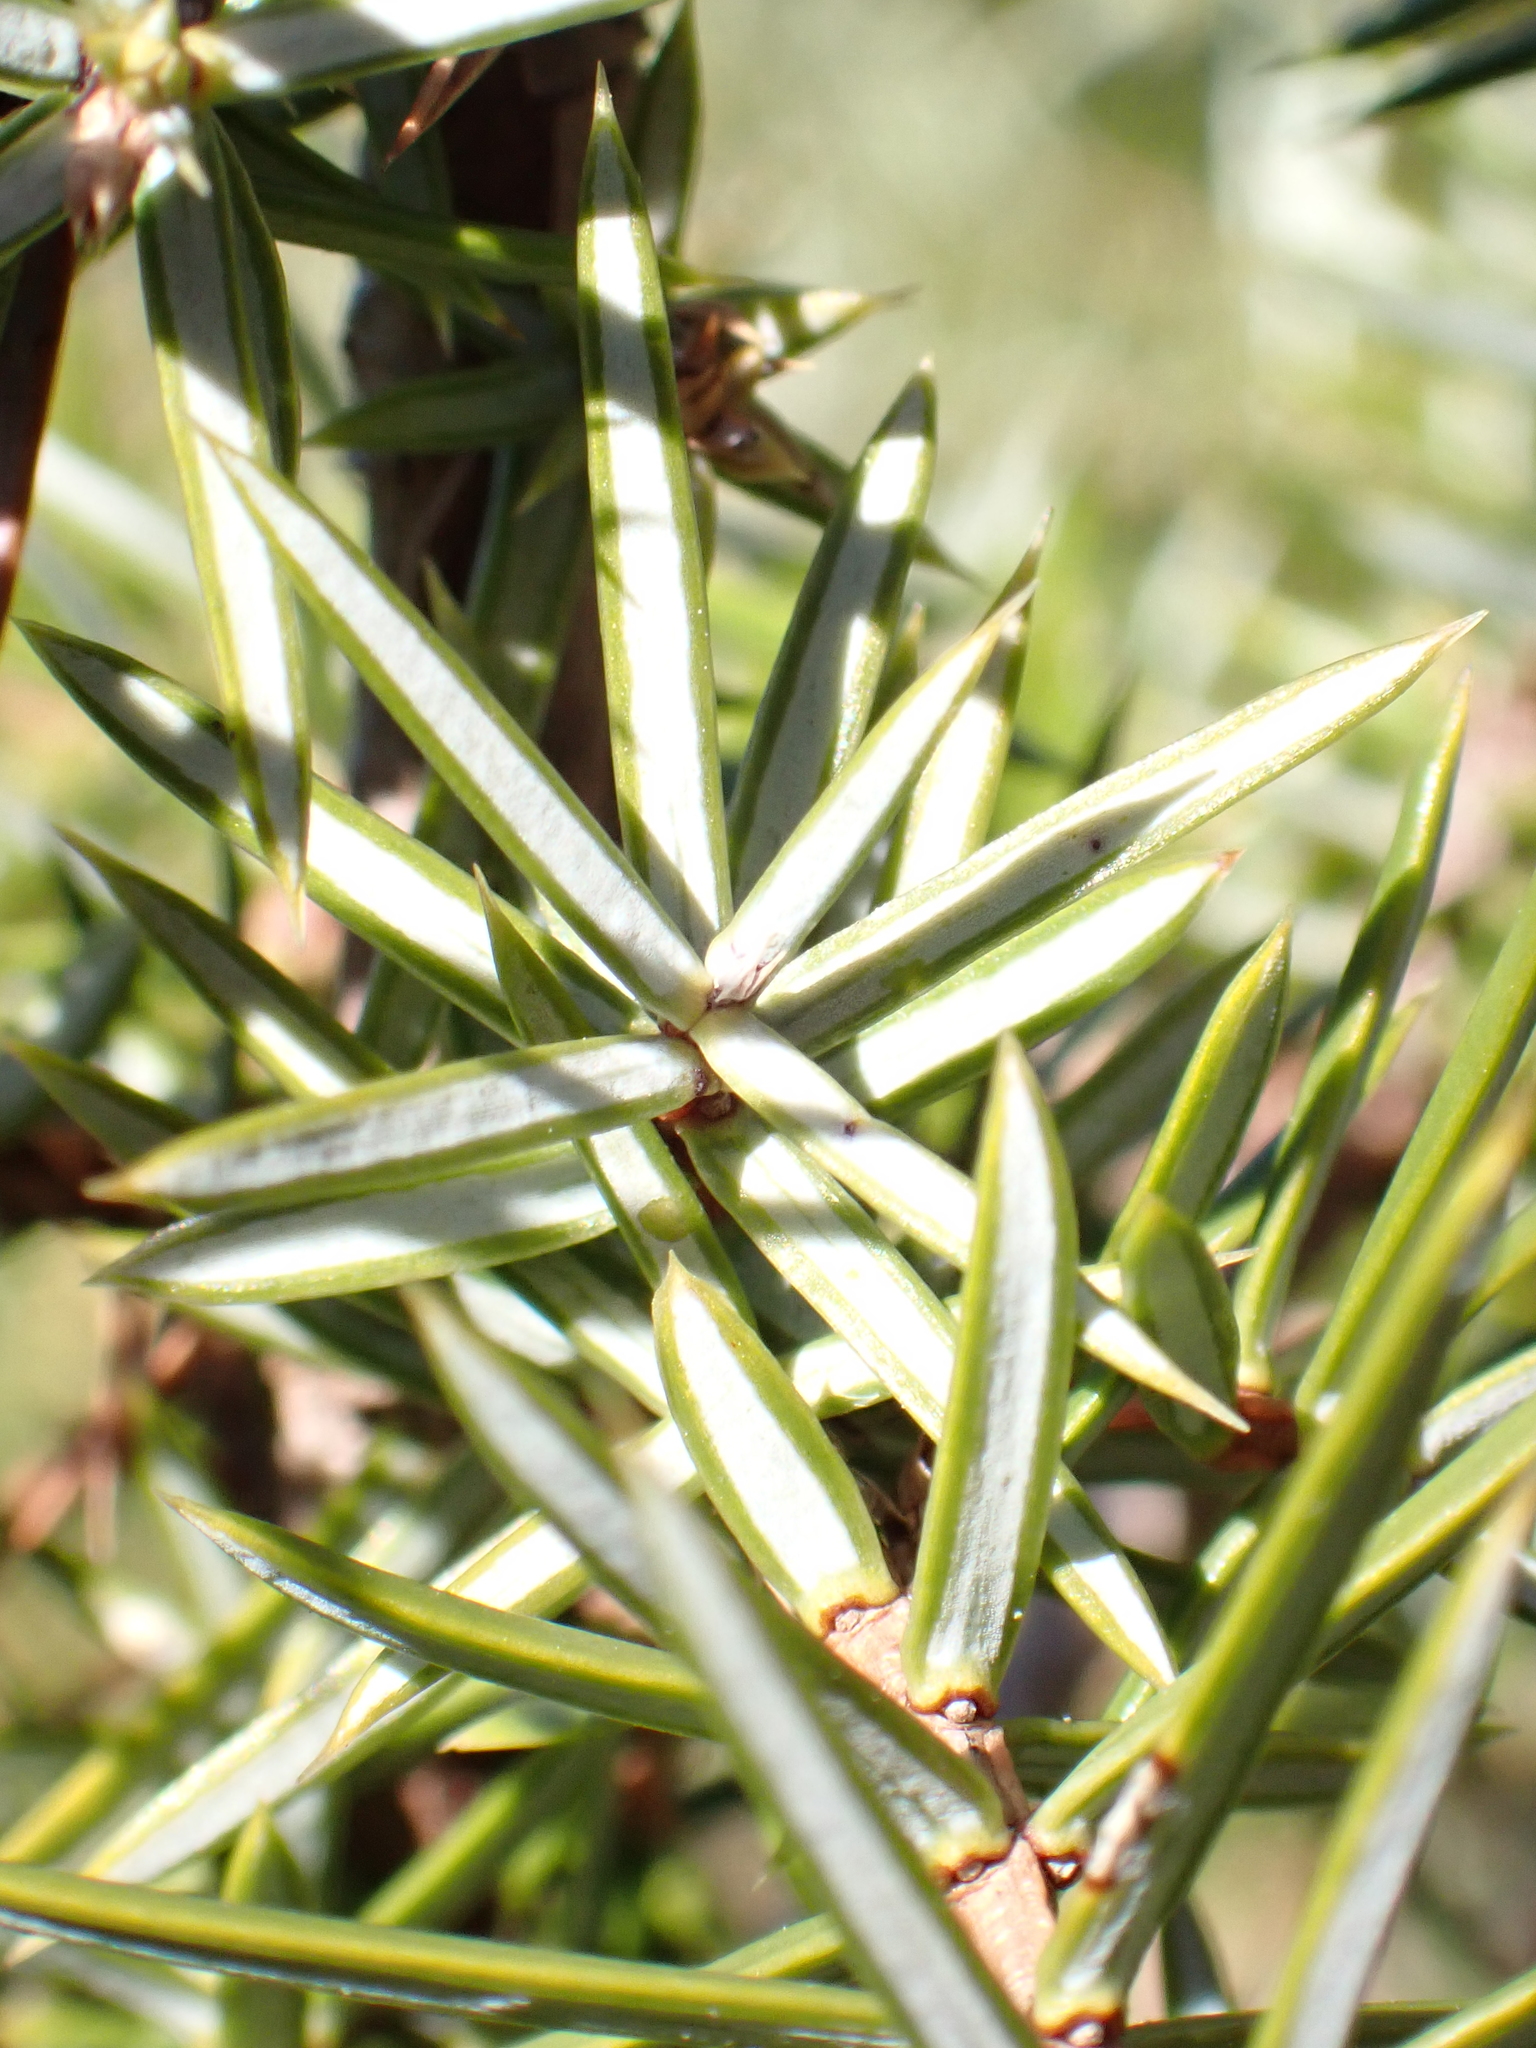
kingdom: Plantae
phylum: Tracheophyta
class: Pinopsida
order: Pinales
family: Cupressaceae
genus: Juniperus
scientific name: Juniperus communis
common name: Common juniper
